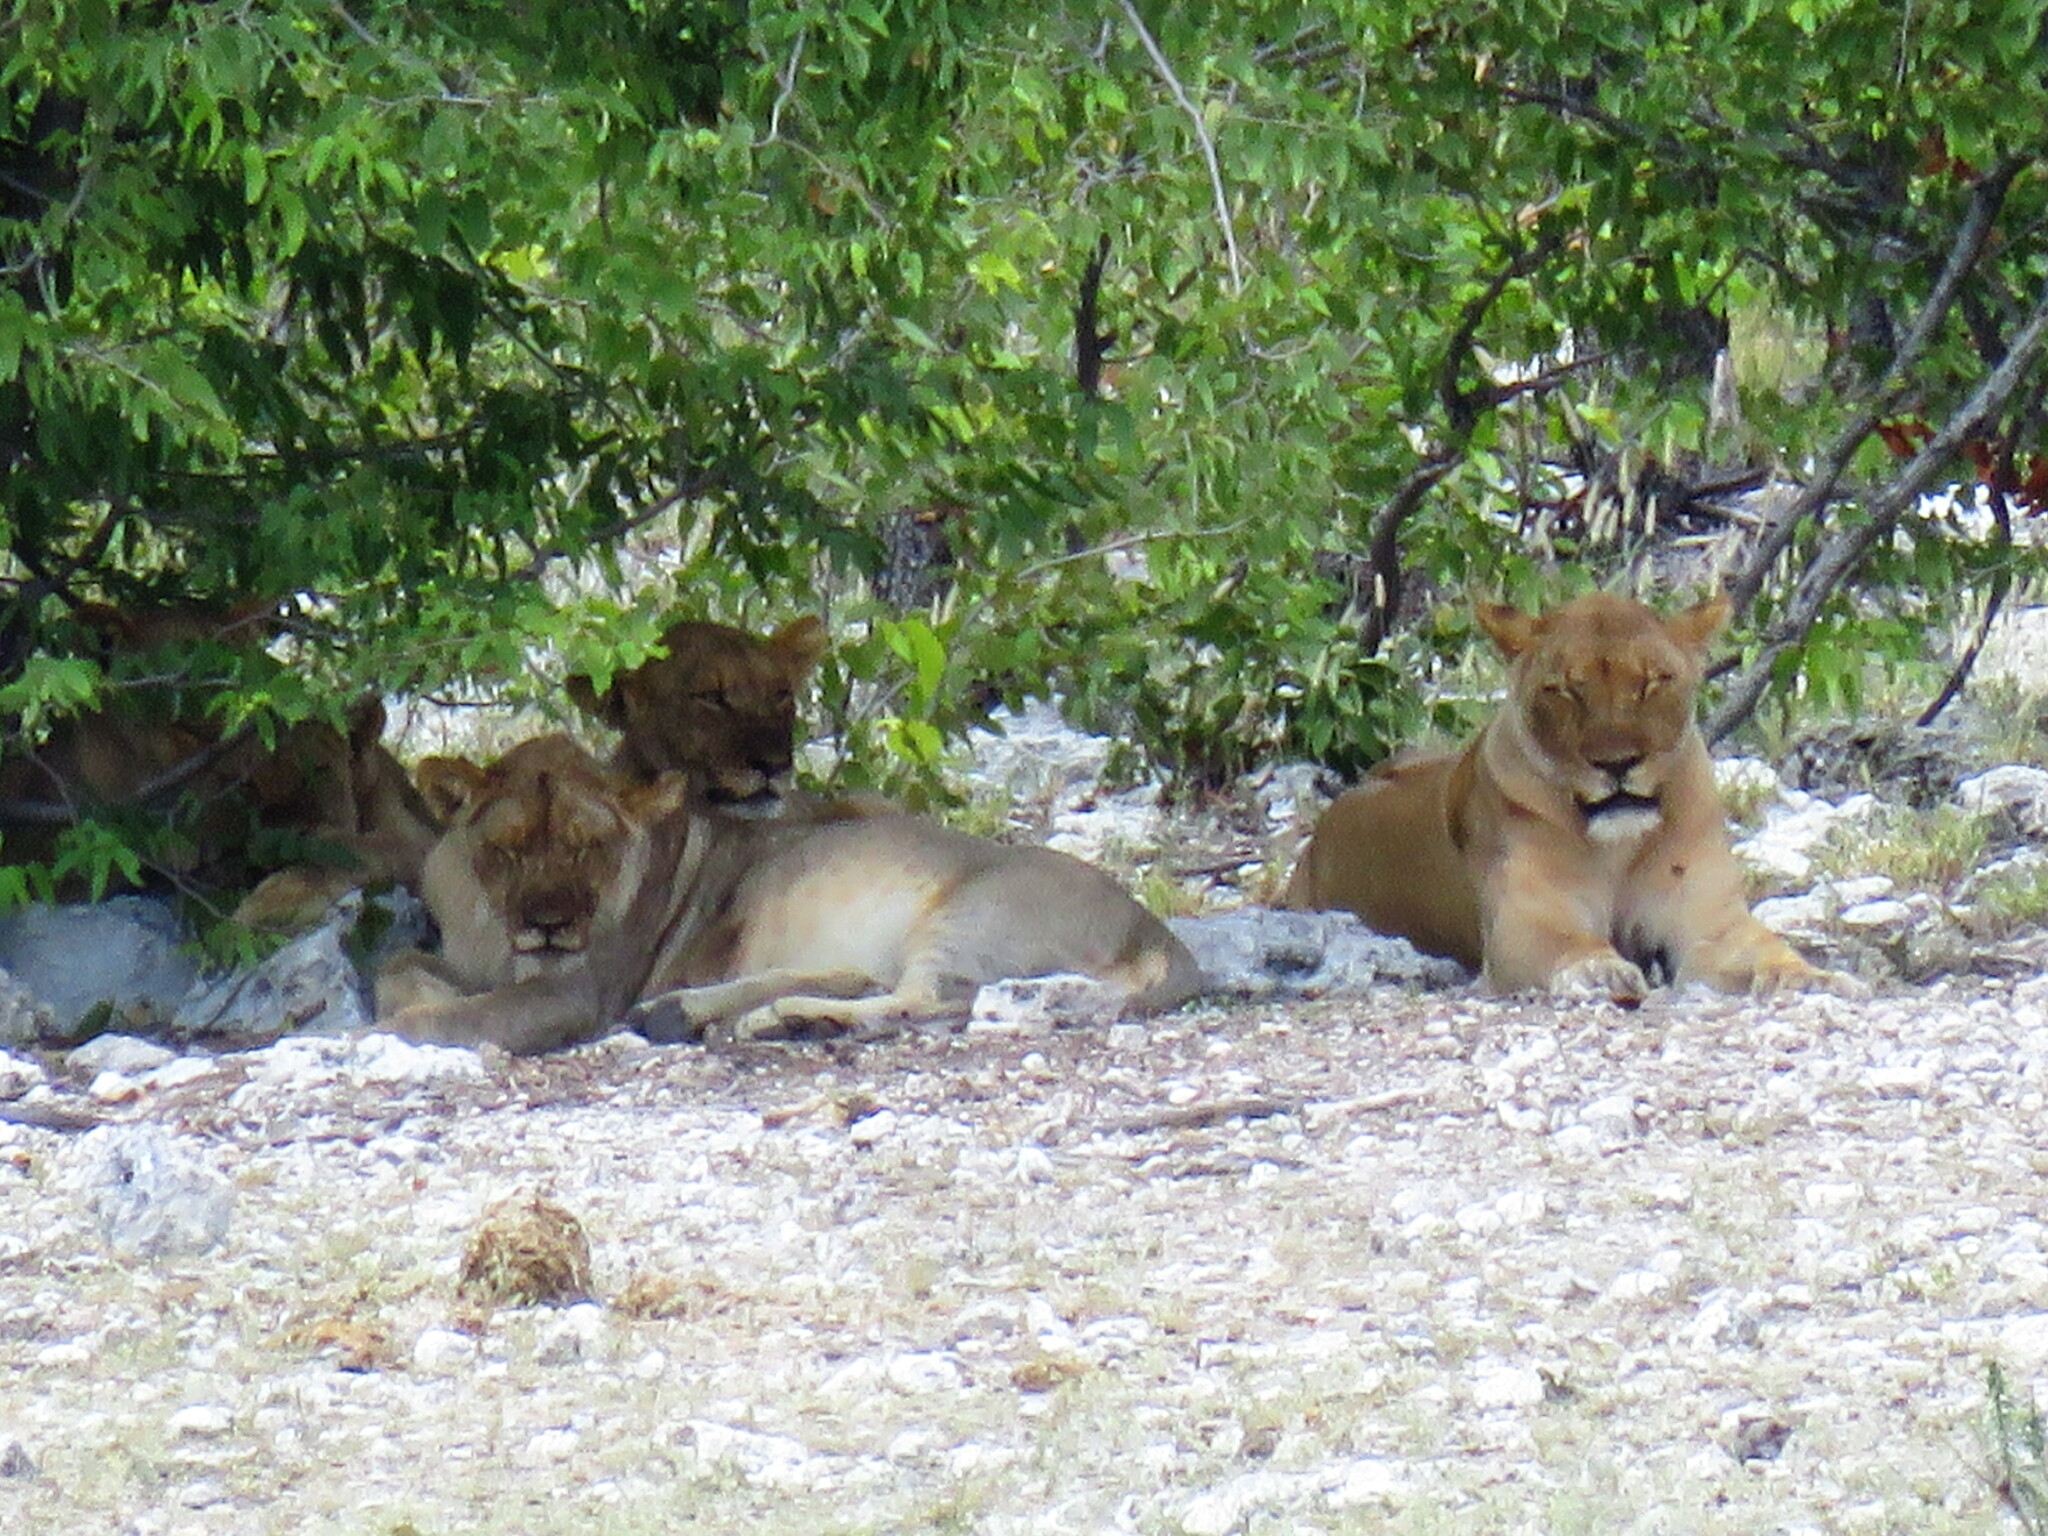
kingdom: Animalia
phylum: Chordata
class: Mammalia
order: Carnivora
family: Felidae
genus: Panthera
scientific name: Panthera leo
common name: Lion
